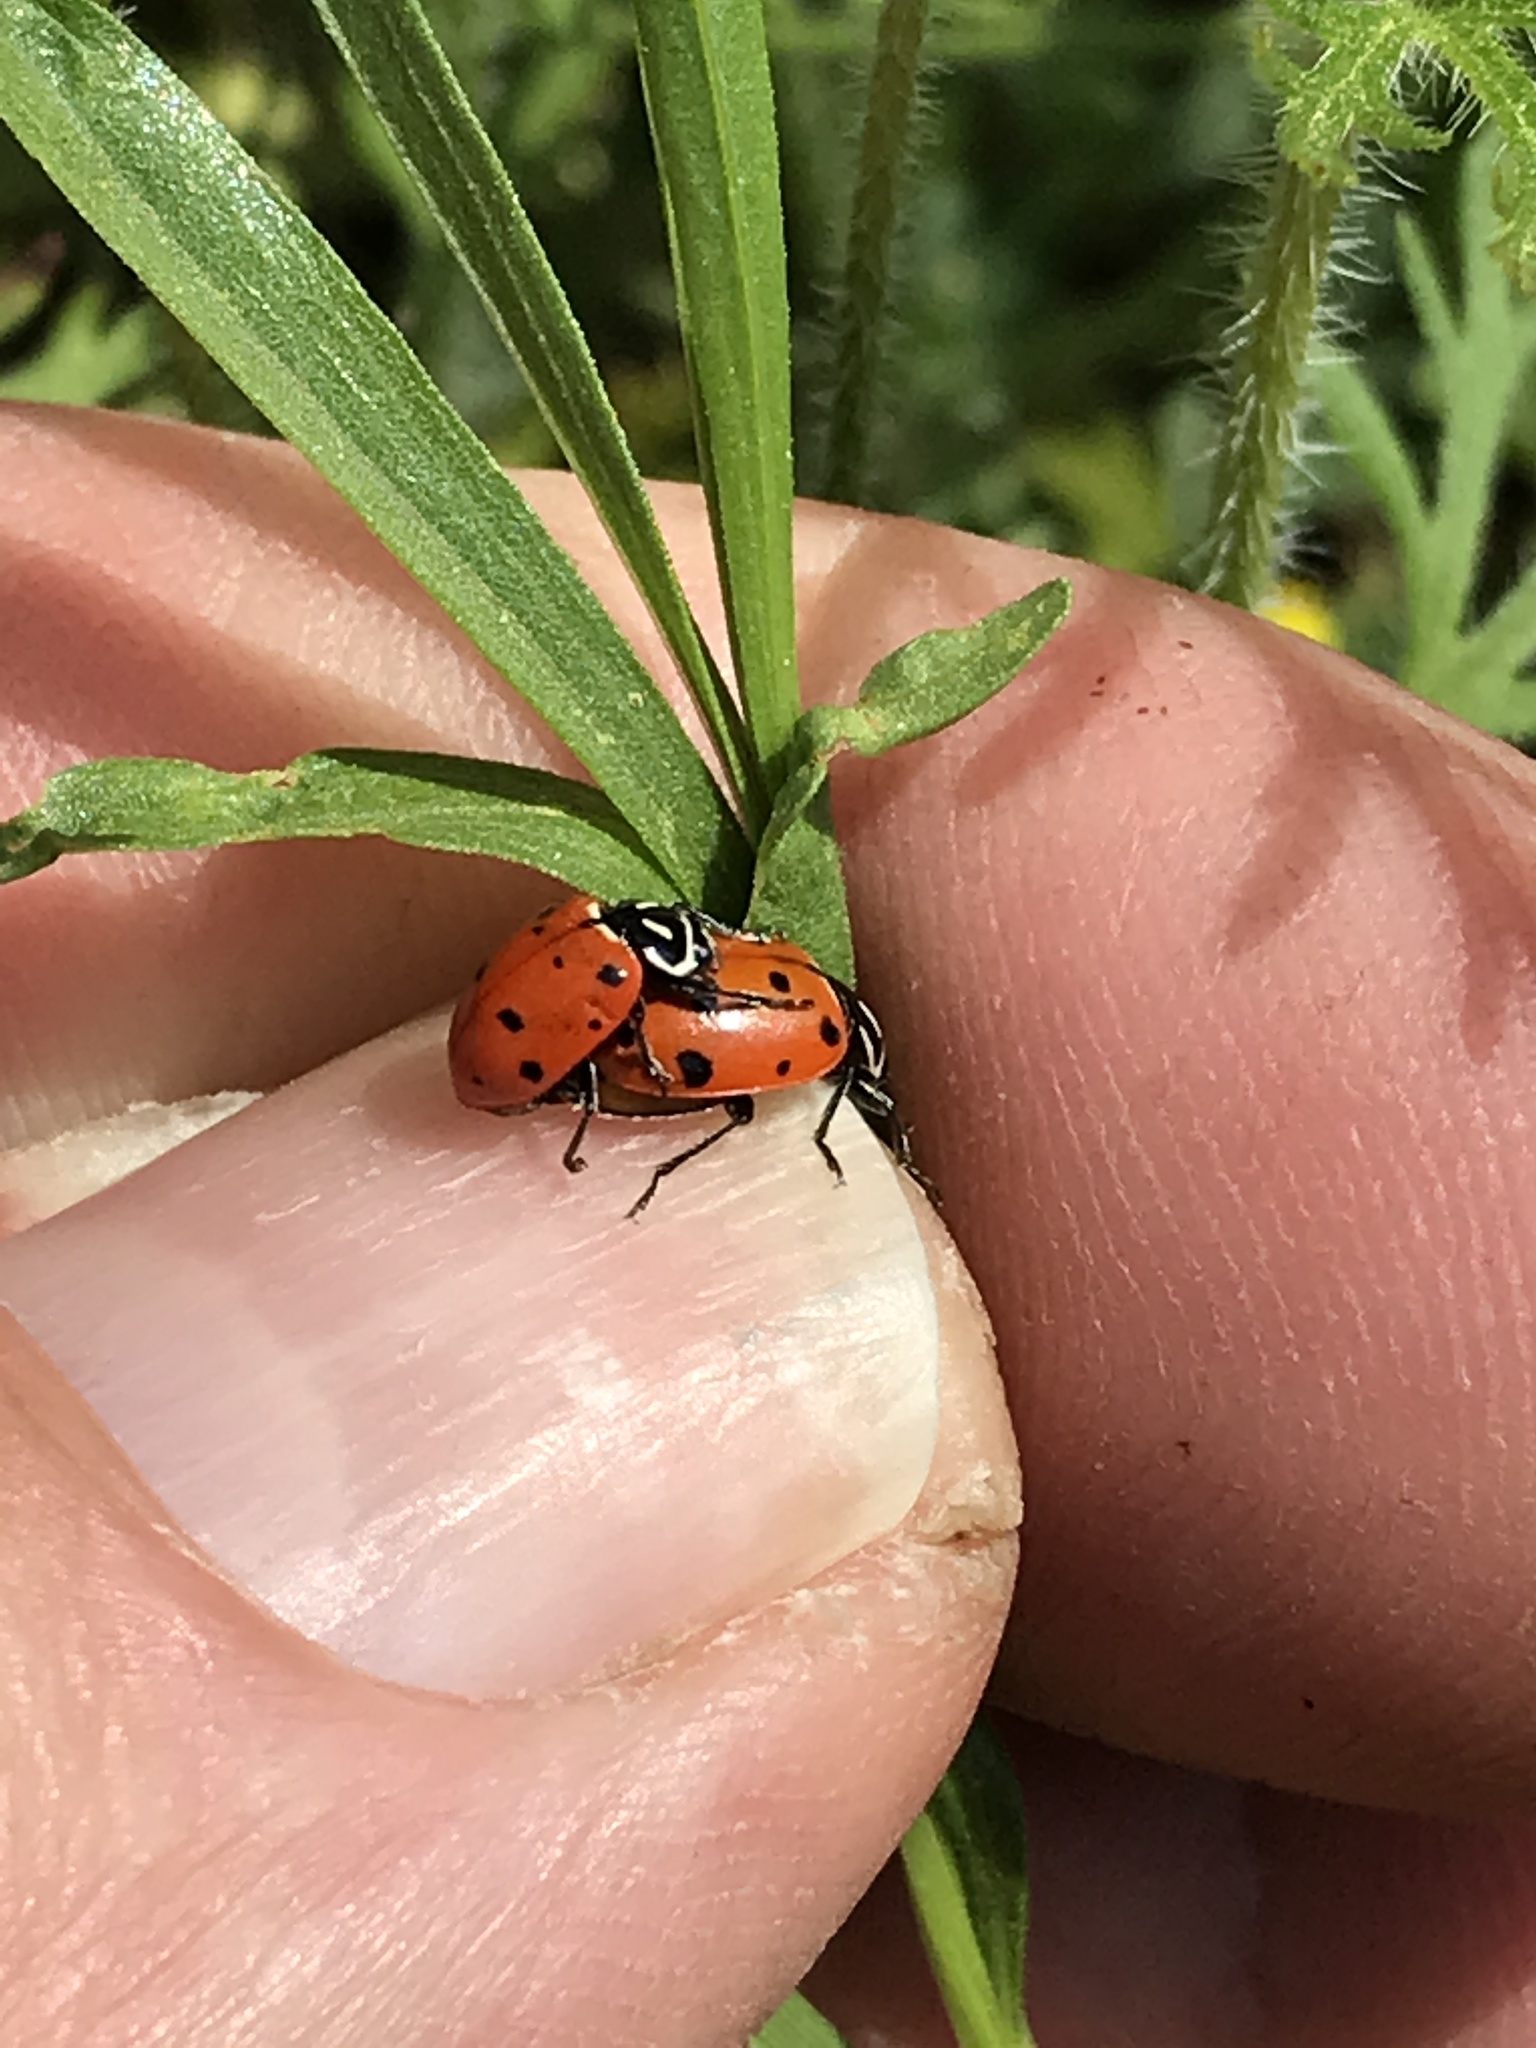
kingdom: Animalia
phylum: Arthropoda
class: Insecta
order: Coleoptera
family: Coccinellidae
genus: Hippodamia
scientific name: Hippodamia convergens
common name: Convergent lady beetle
